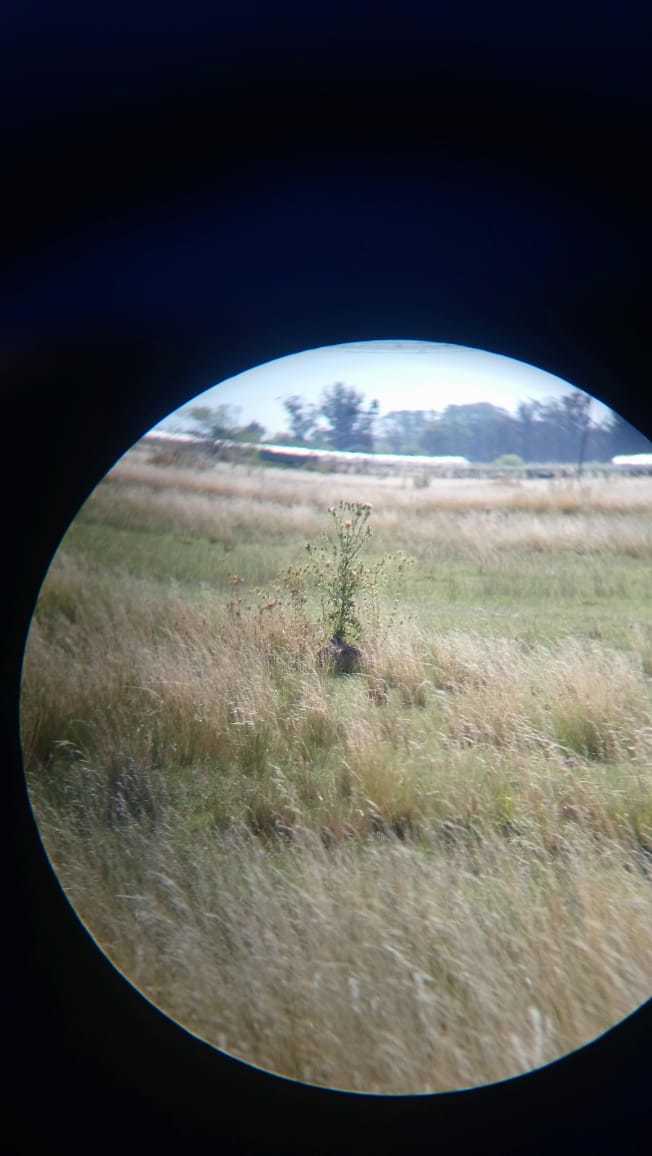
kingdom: Animalia
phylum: Chordata
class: Mammalia
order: Lagomorpha
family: Leporidae
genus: Lepus
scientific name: Lepus europaeus
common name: European hare
